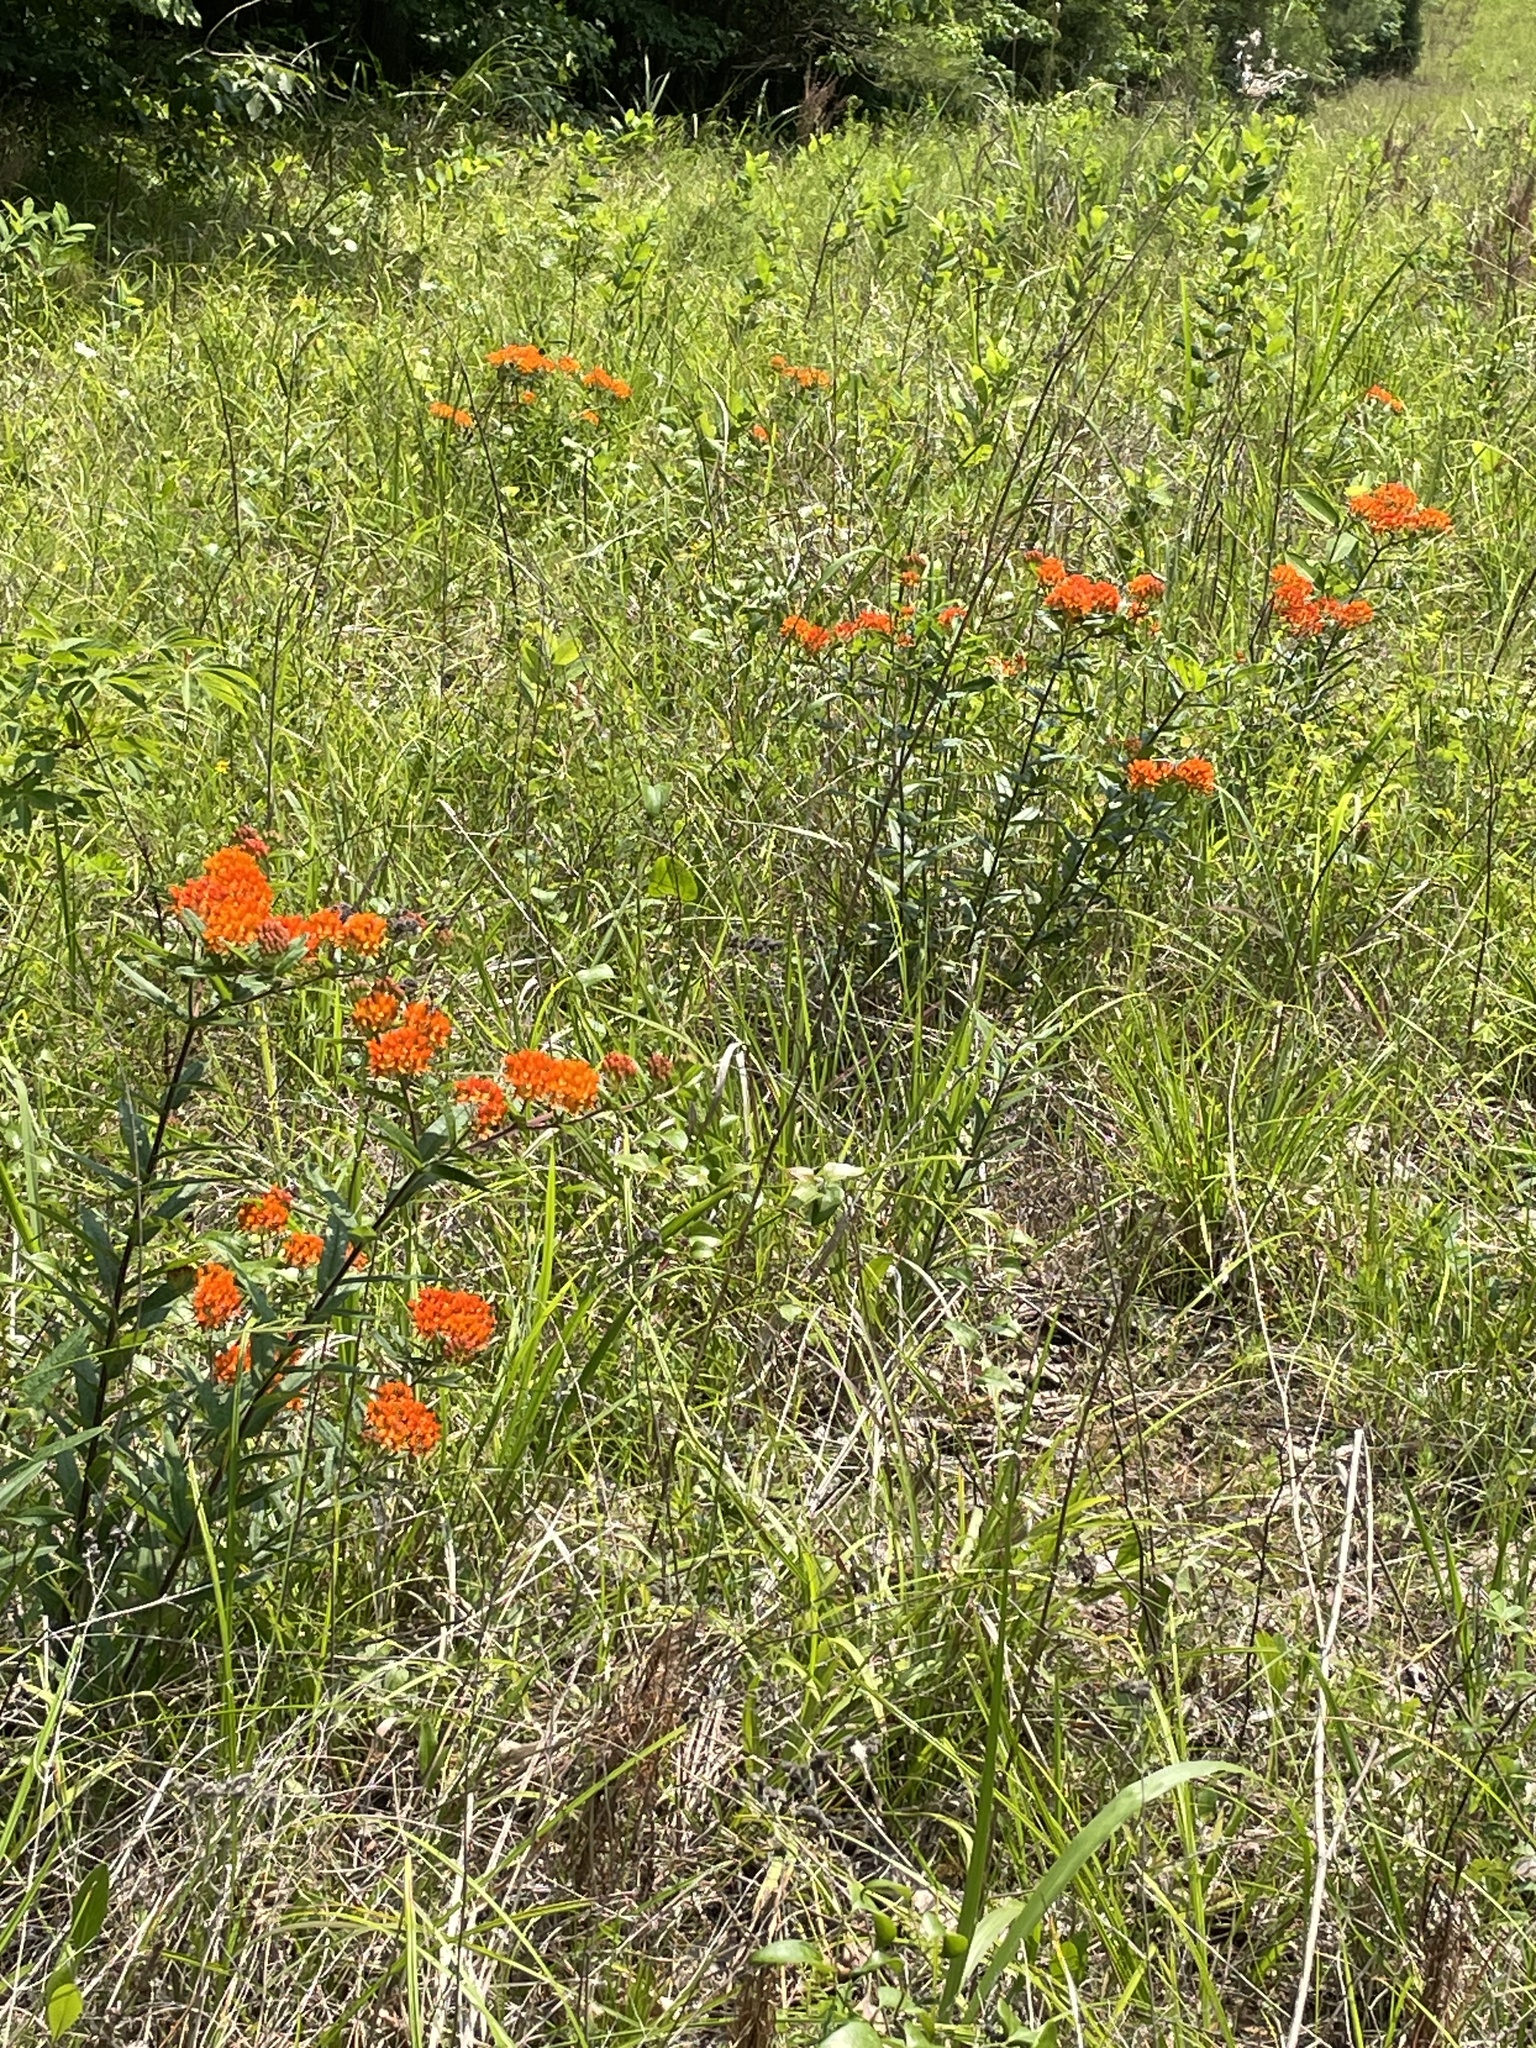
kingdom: Plantae
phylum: Tracheophyta
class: Magnoliopsida
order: Gentianales
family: Apocynaceae
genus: Asclepias
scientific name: Asclepias tuberosa
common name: Butterfly milkweed
